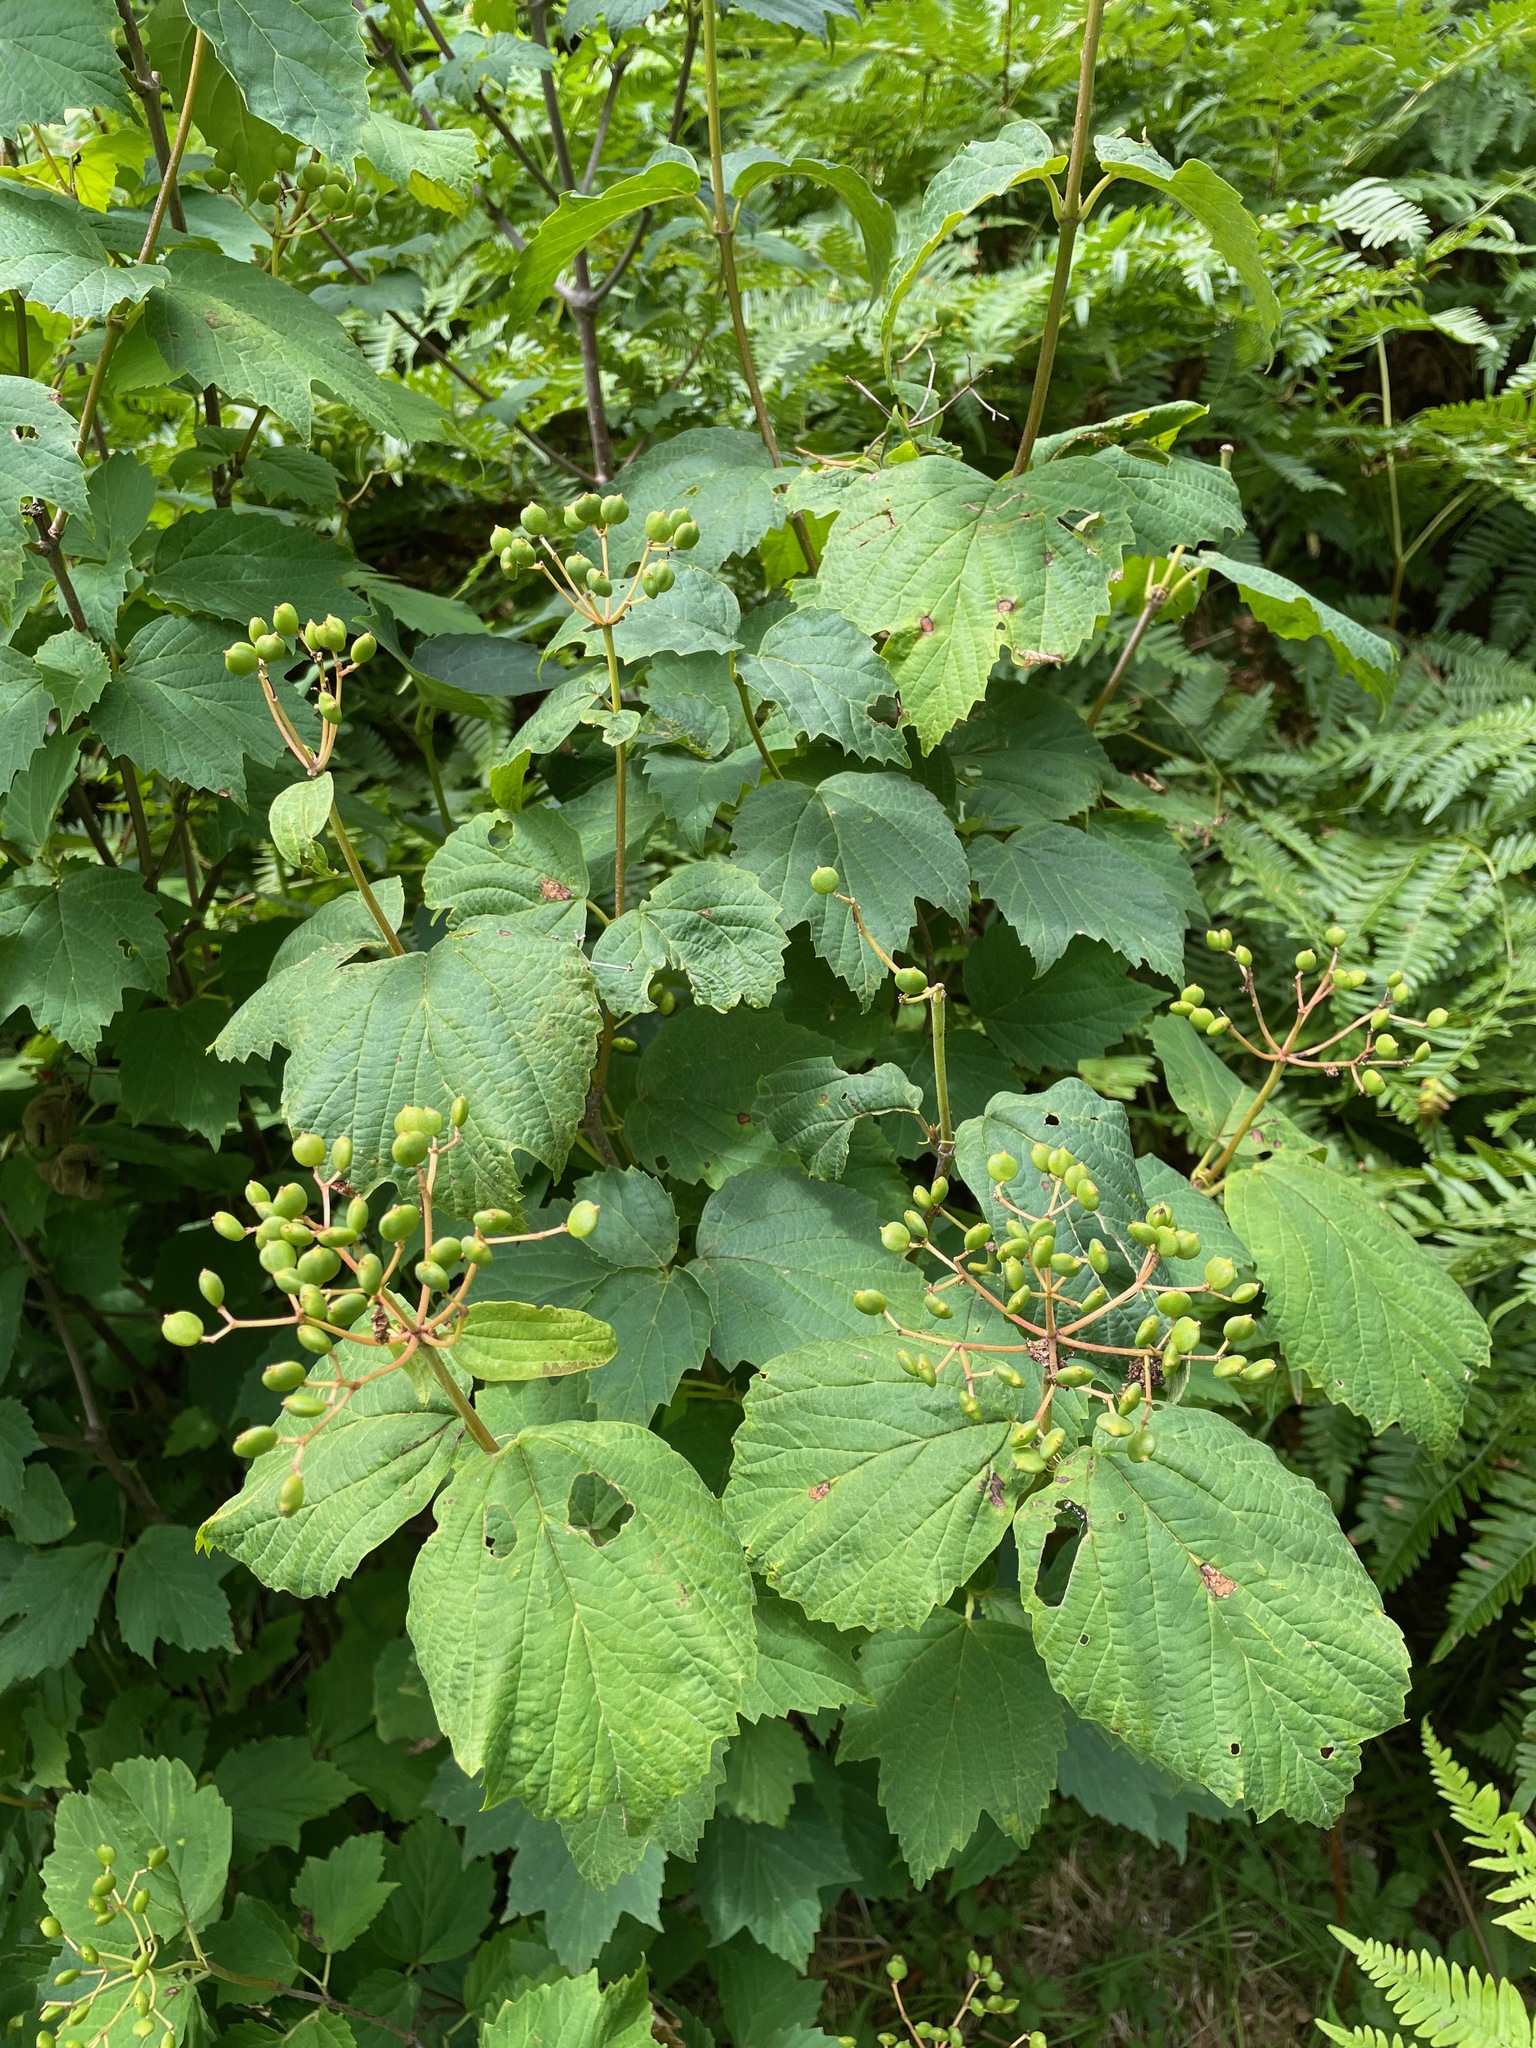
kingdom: Plantae
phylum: Tracheophyta
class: Magnoliopsida
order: Dipsacales
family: Viburnaceae
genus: Viburnum
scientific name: Viburnum acerifolium
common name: Dockmackie
